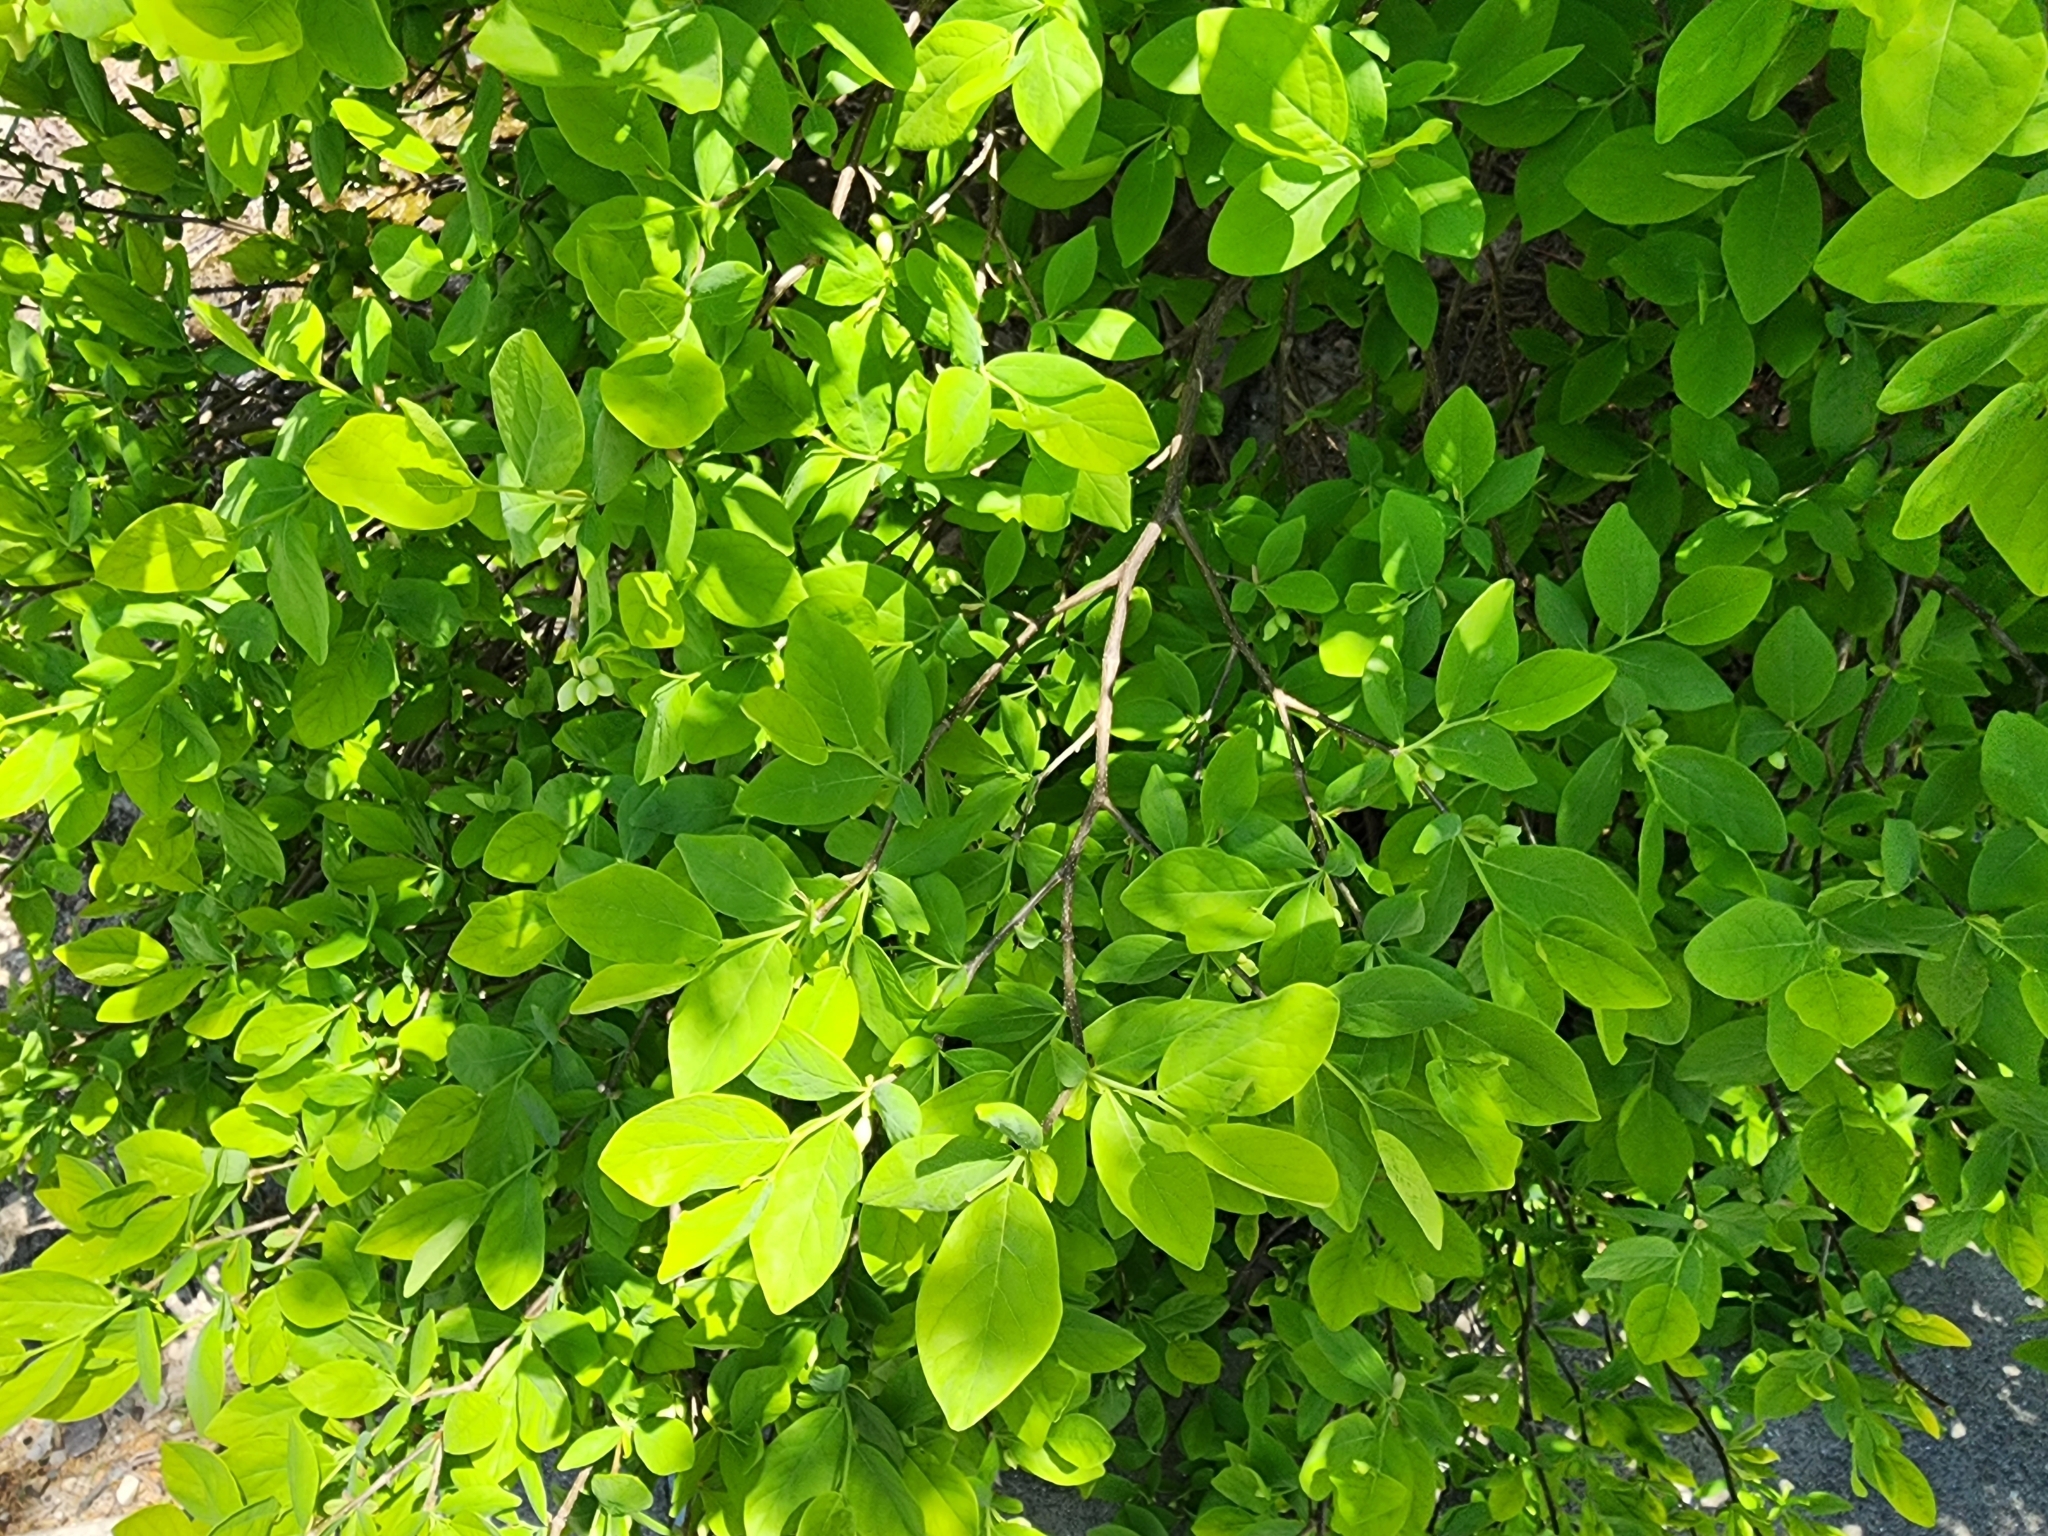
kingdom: Plantae
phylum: Tracheophyta
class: Magnoliopsida
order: Malvales
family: Thymelaeaceae
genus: Dirca
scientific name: Dirca palustris
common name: Leatherwood
